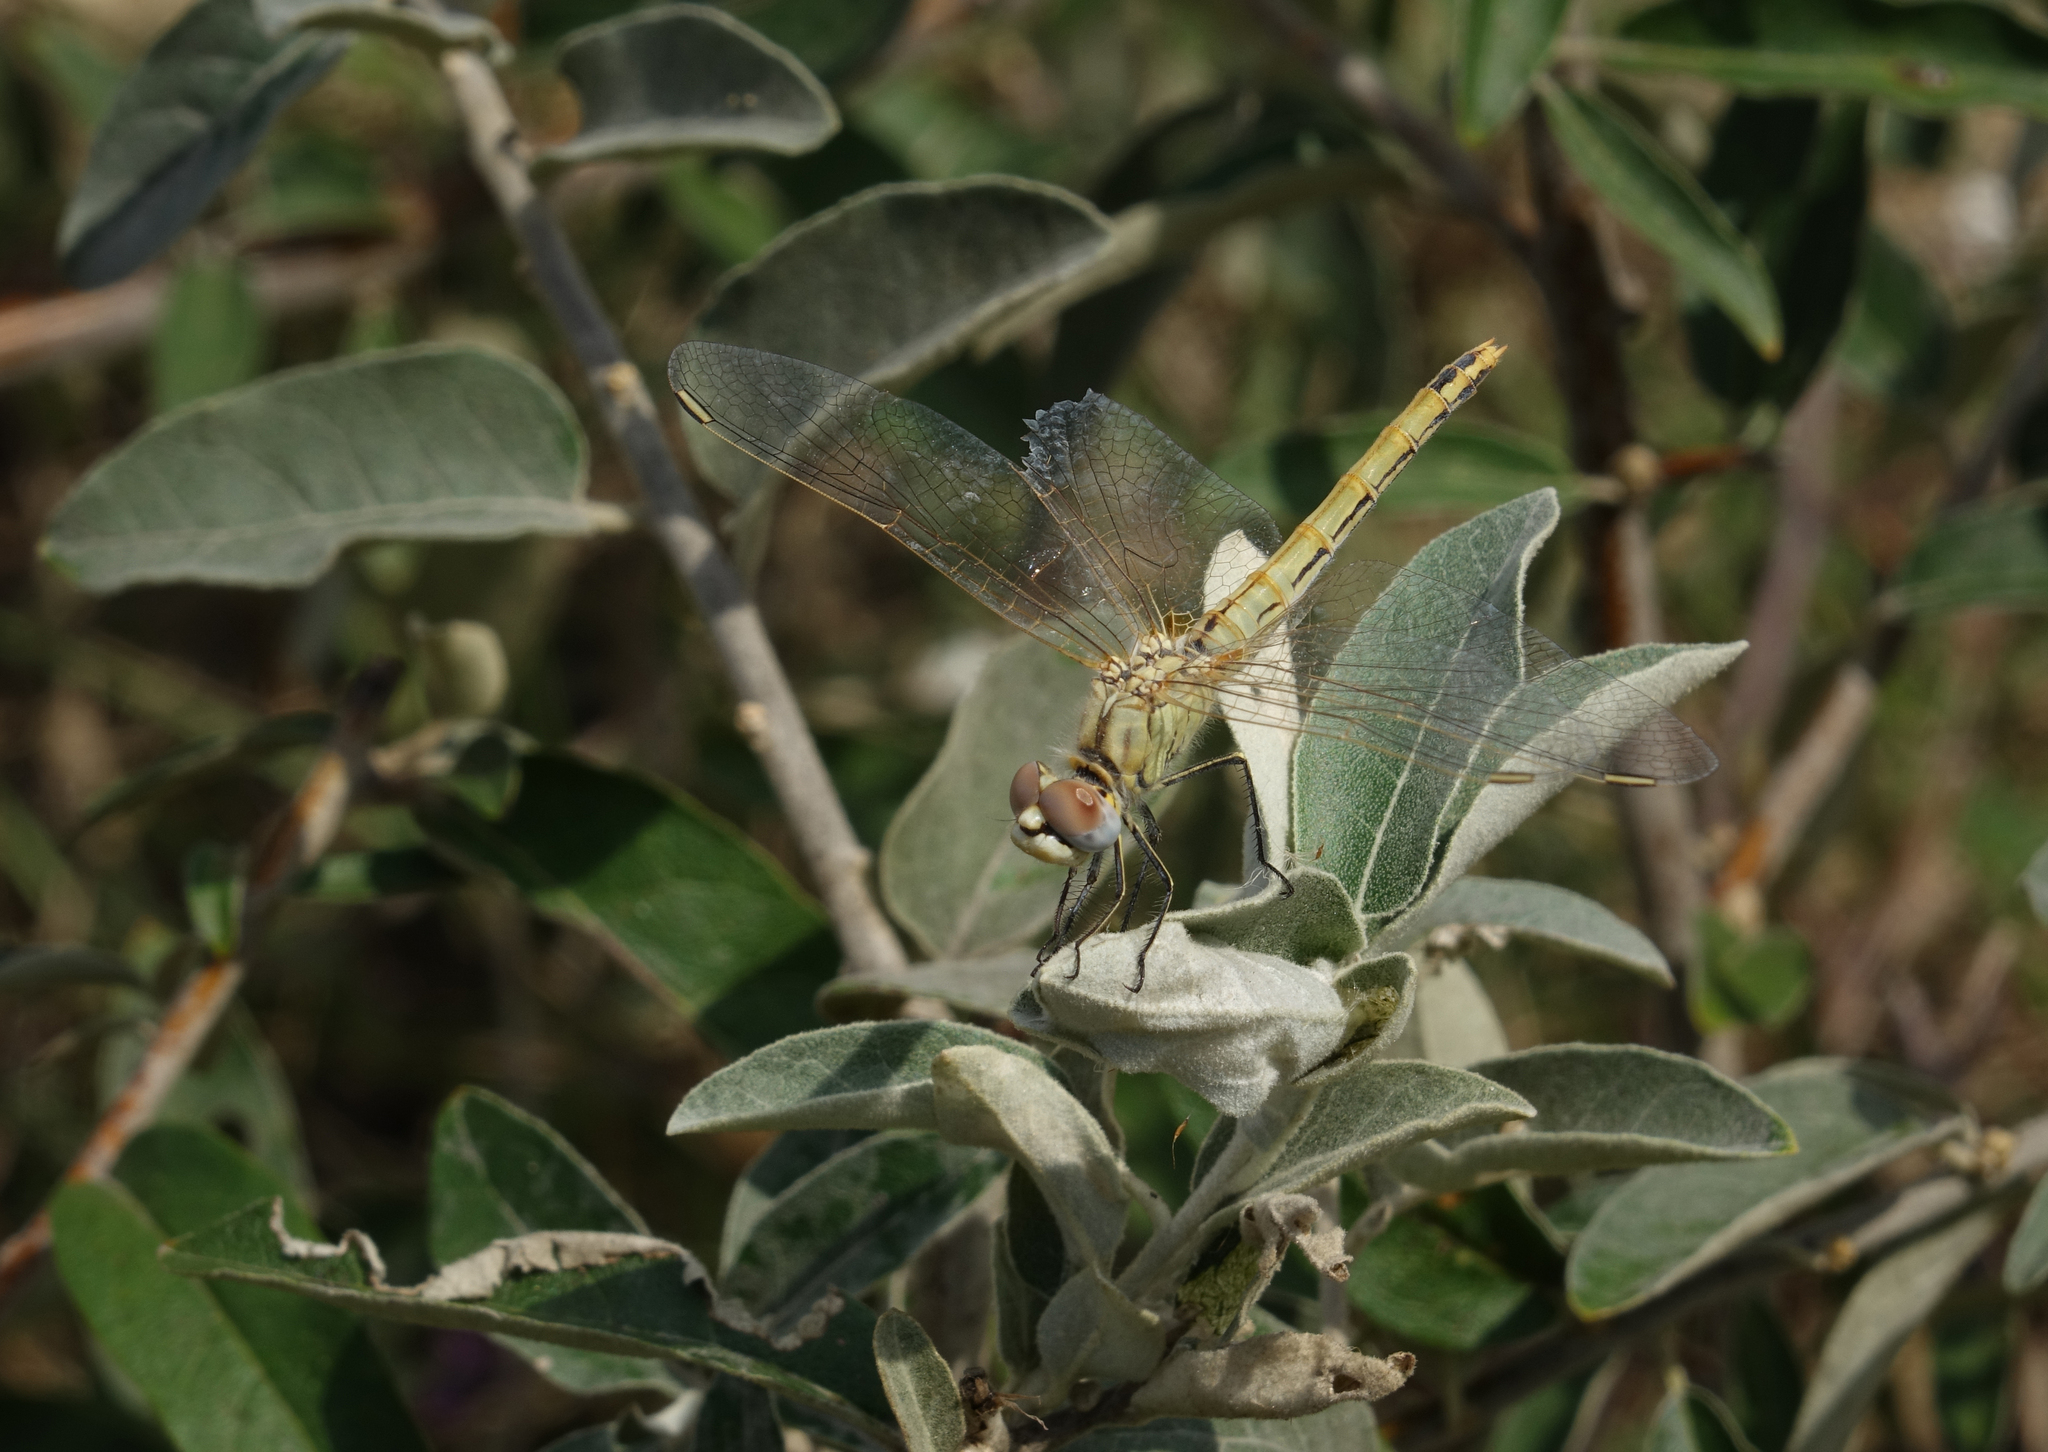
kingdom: Animalia
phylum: Arthropoda
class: Insecta
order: Odonata
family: Libellulidae
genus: Sympetrum
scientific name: Sympetrum fonscolombii
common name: Red-veined darter
